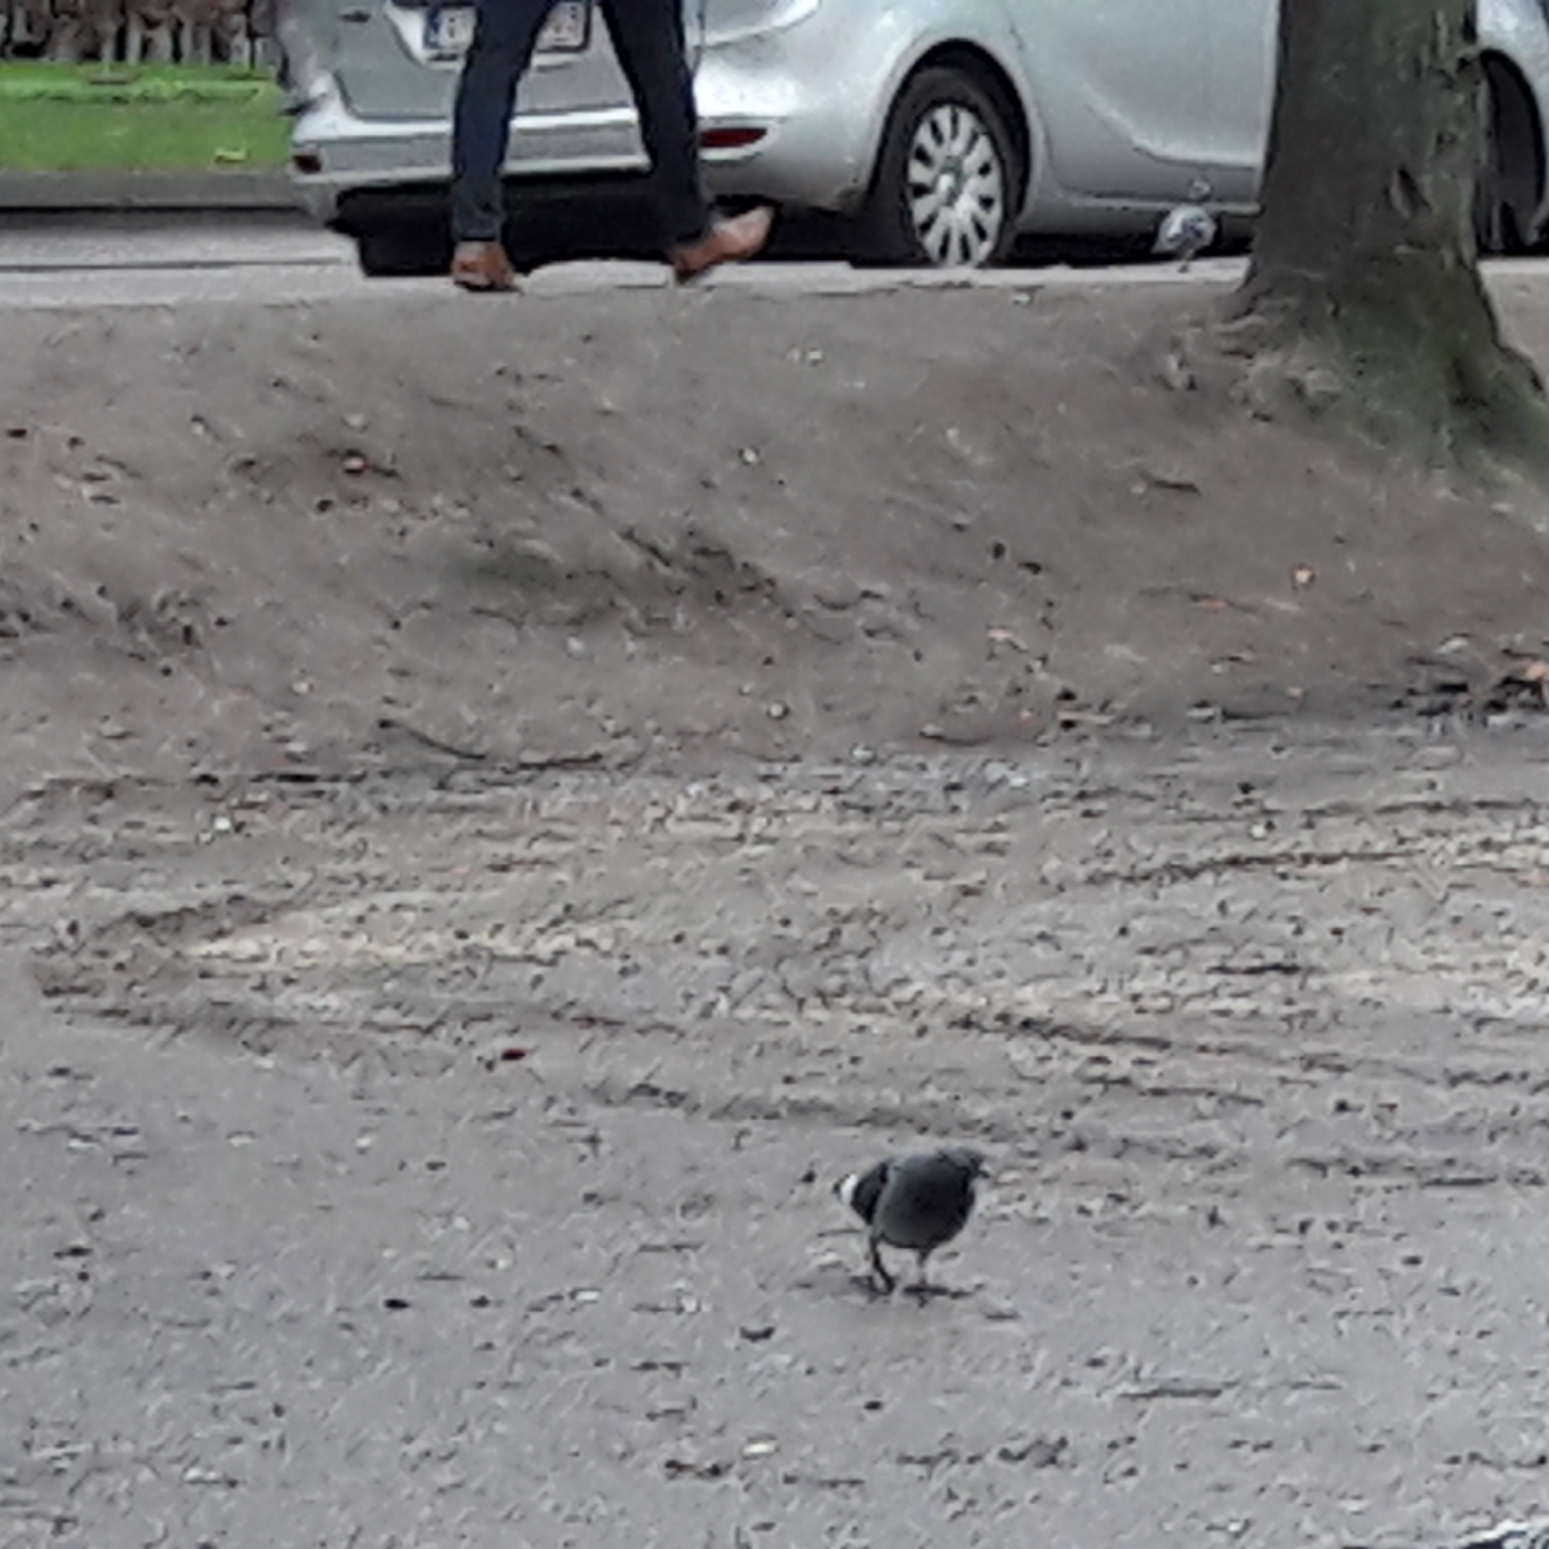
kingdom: Animalia
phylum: Chordata
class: Aves
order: Columbiformes
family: Columbidae
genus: Columba
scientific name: Columba livia
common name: Rock pigeon
